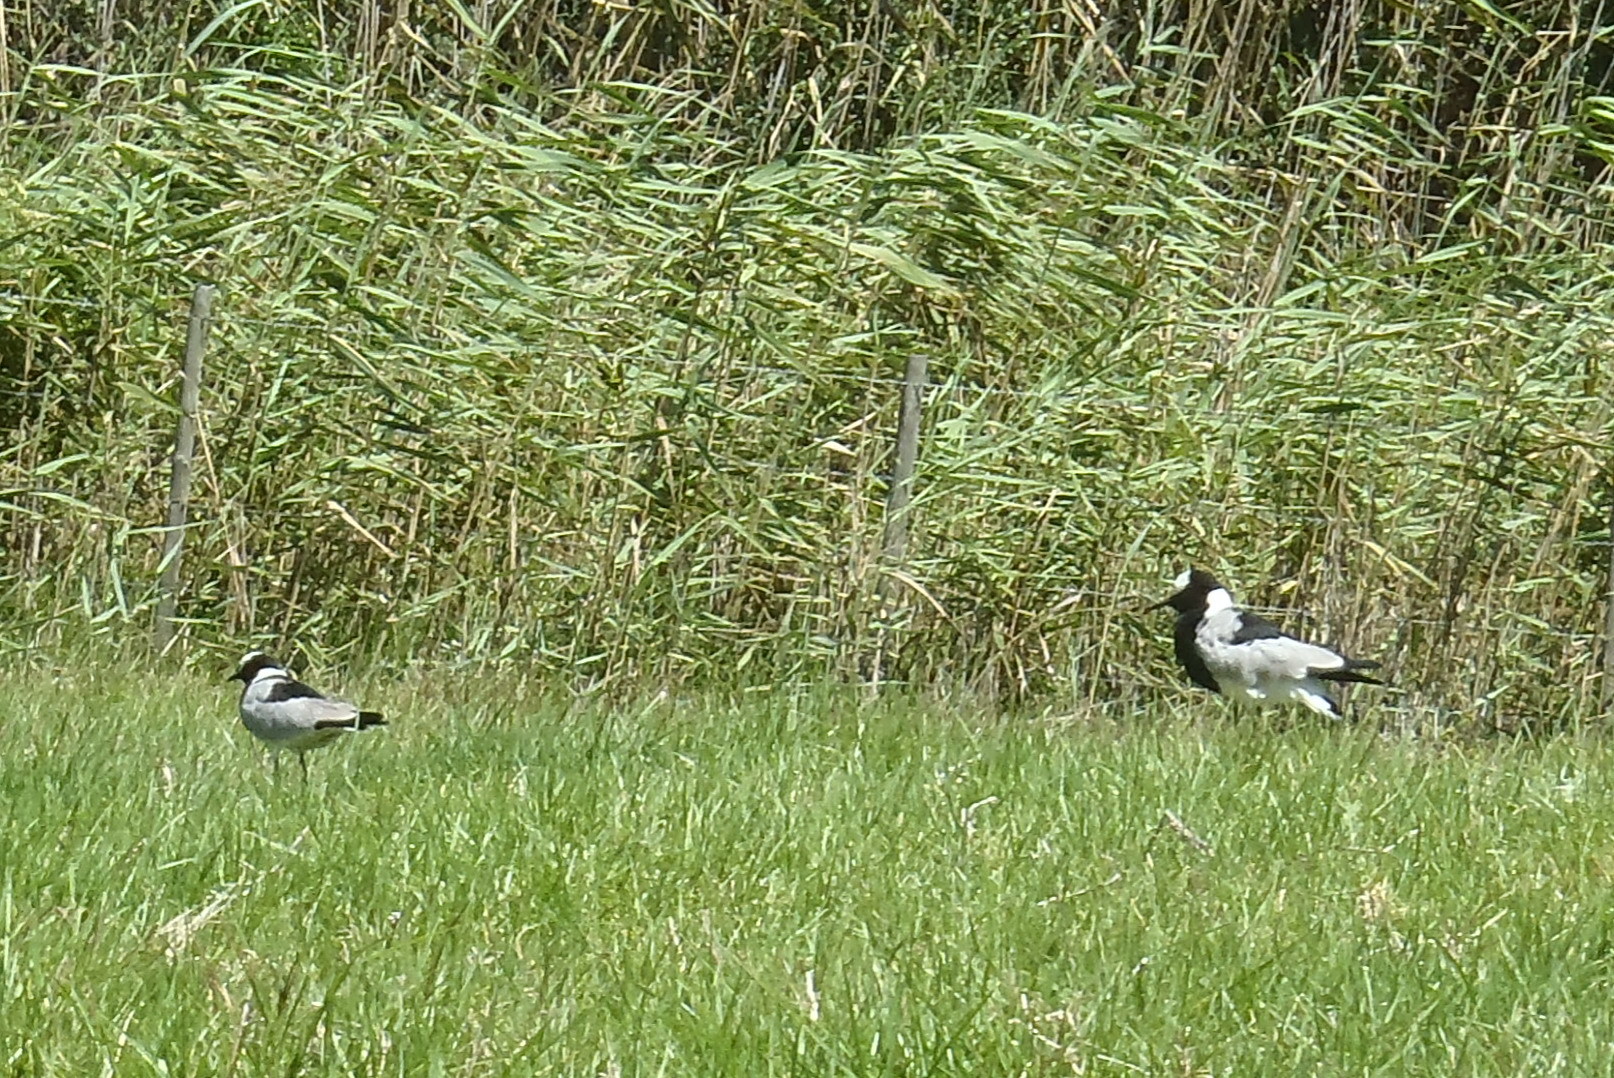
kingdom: Animalia
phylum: Chordata
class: Aves
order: Charadriiformes
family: Charadriidae
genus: Vanellus
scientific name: Vanellus armatus
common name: Blacksmith lapwing
